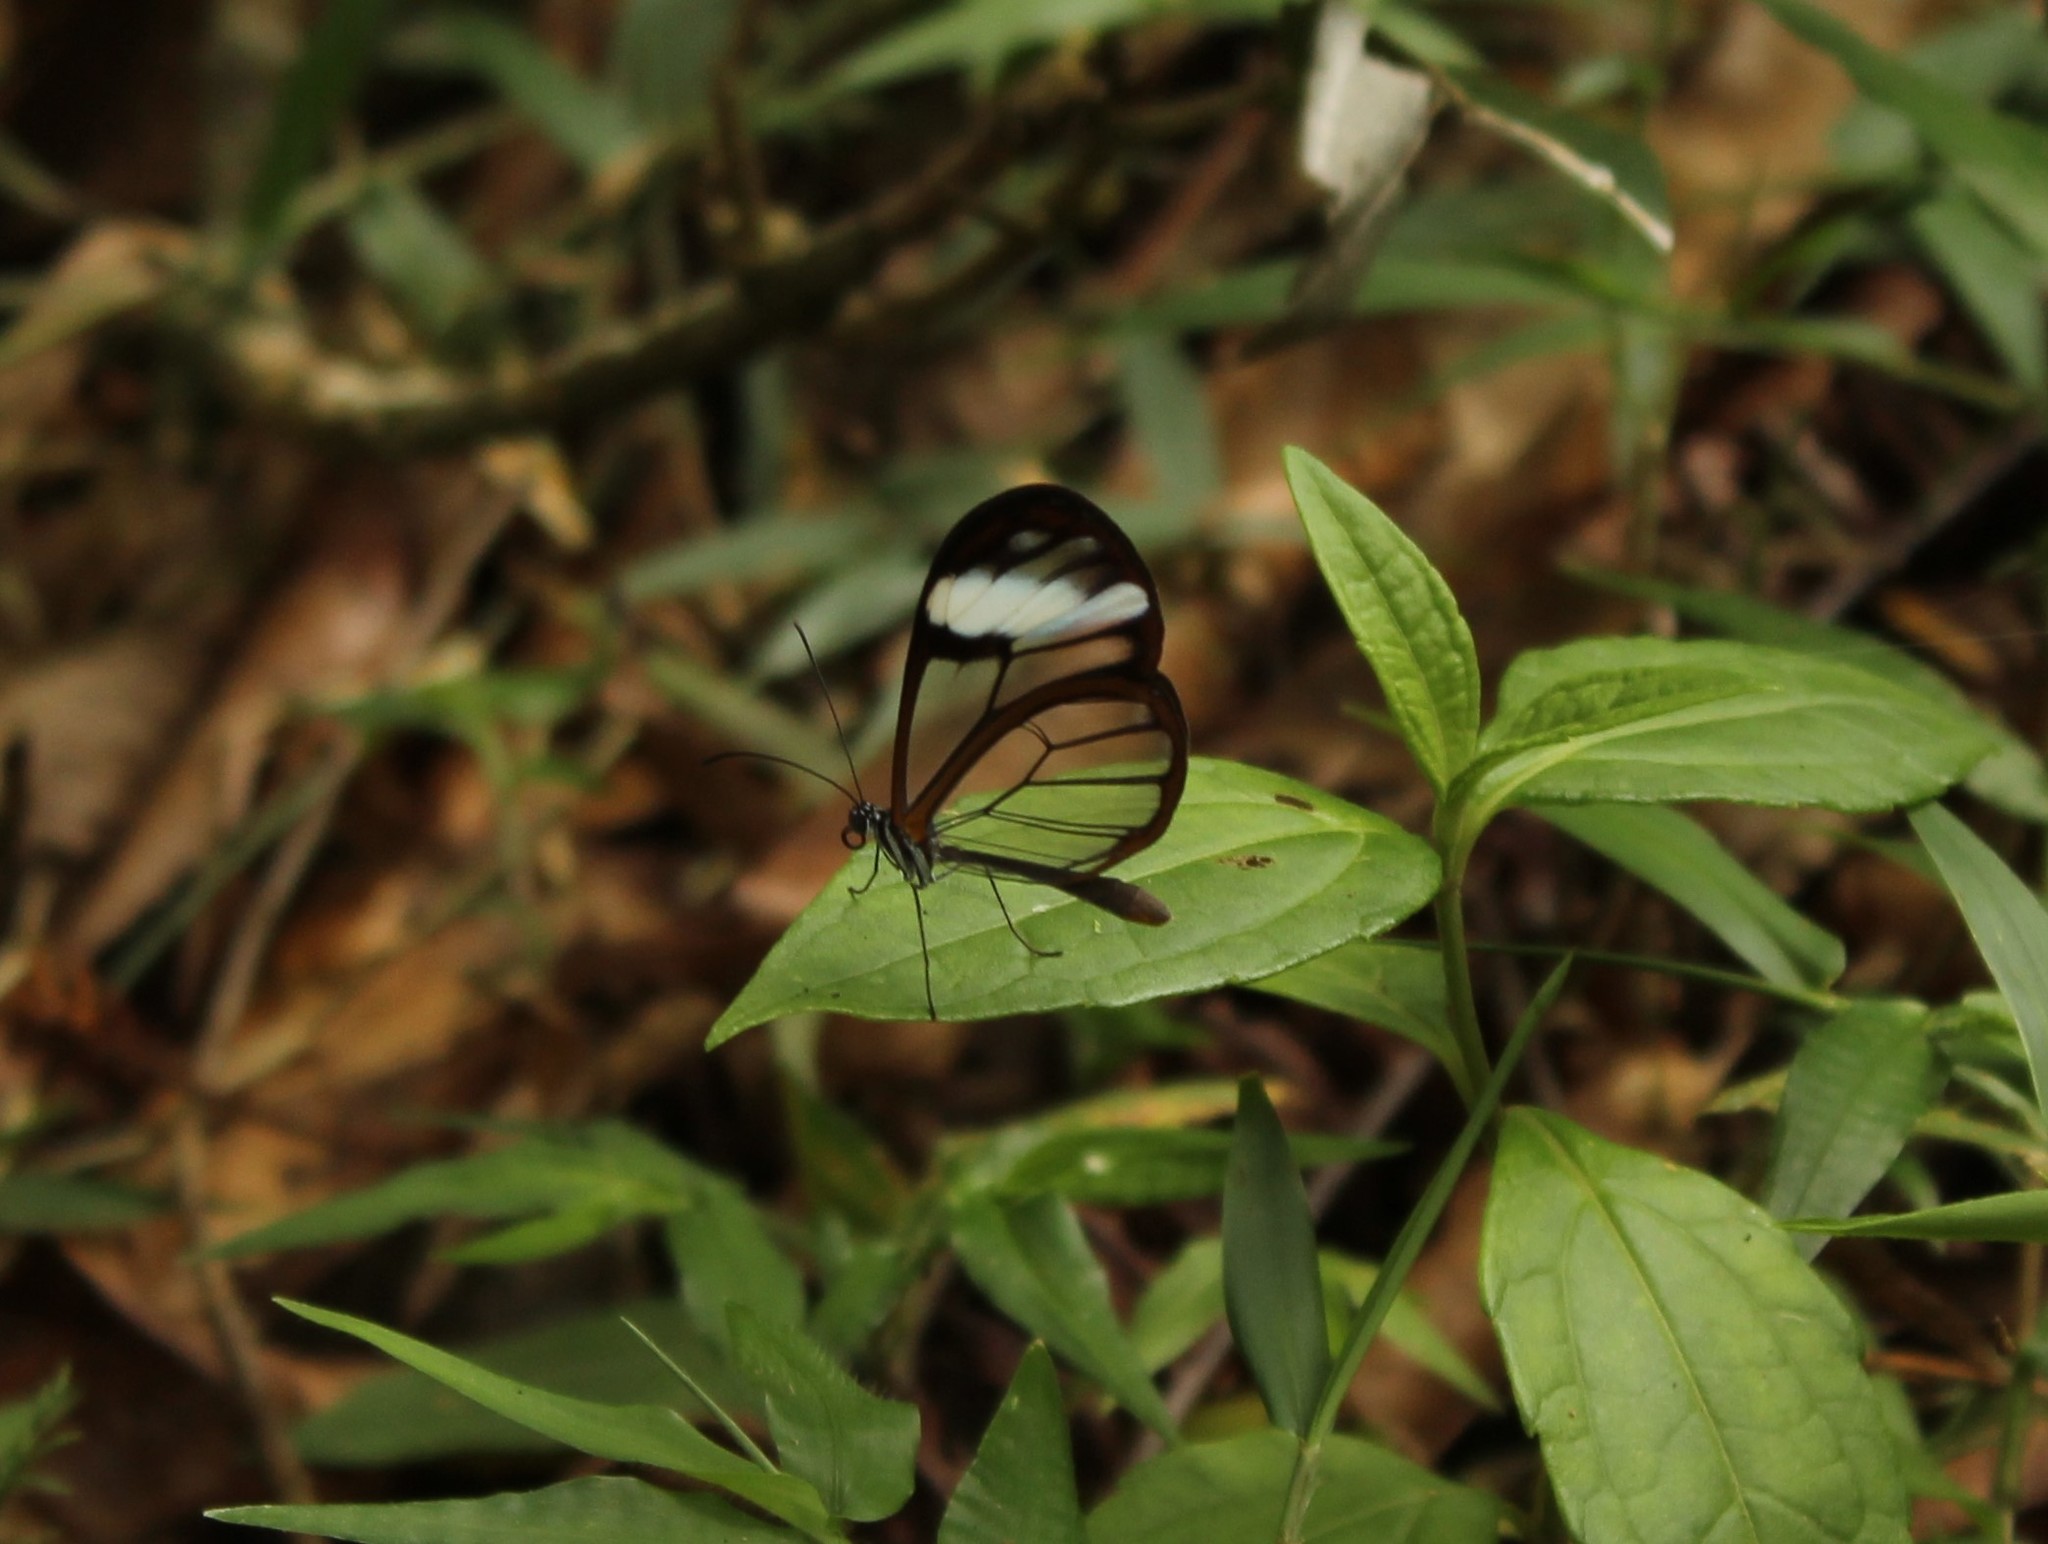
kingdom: Animalia
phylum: Arthropoda
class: Insecta
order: Lepidoptera
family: Nymphalidae
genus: Greta
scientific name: Greta andromica
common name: Andromica clearwing
